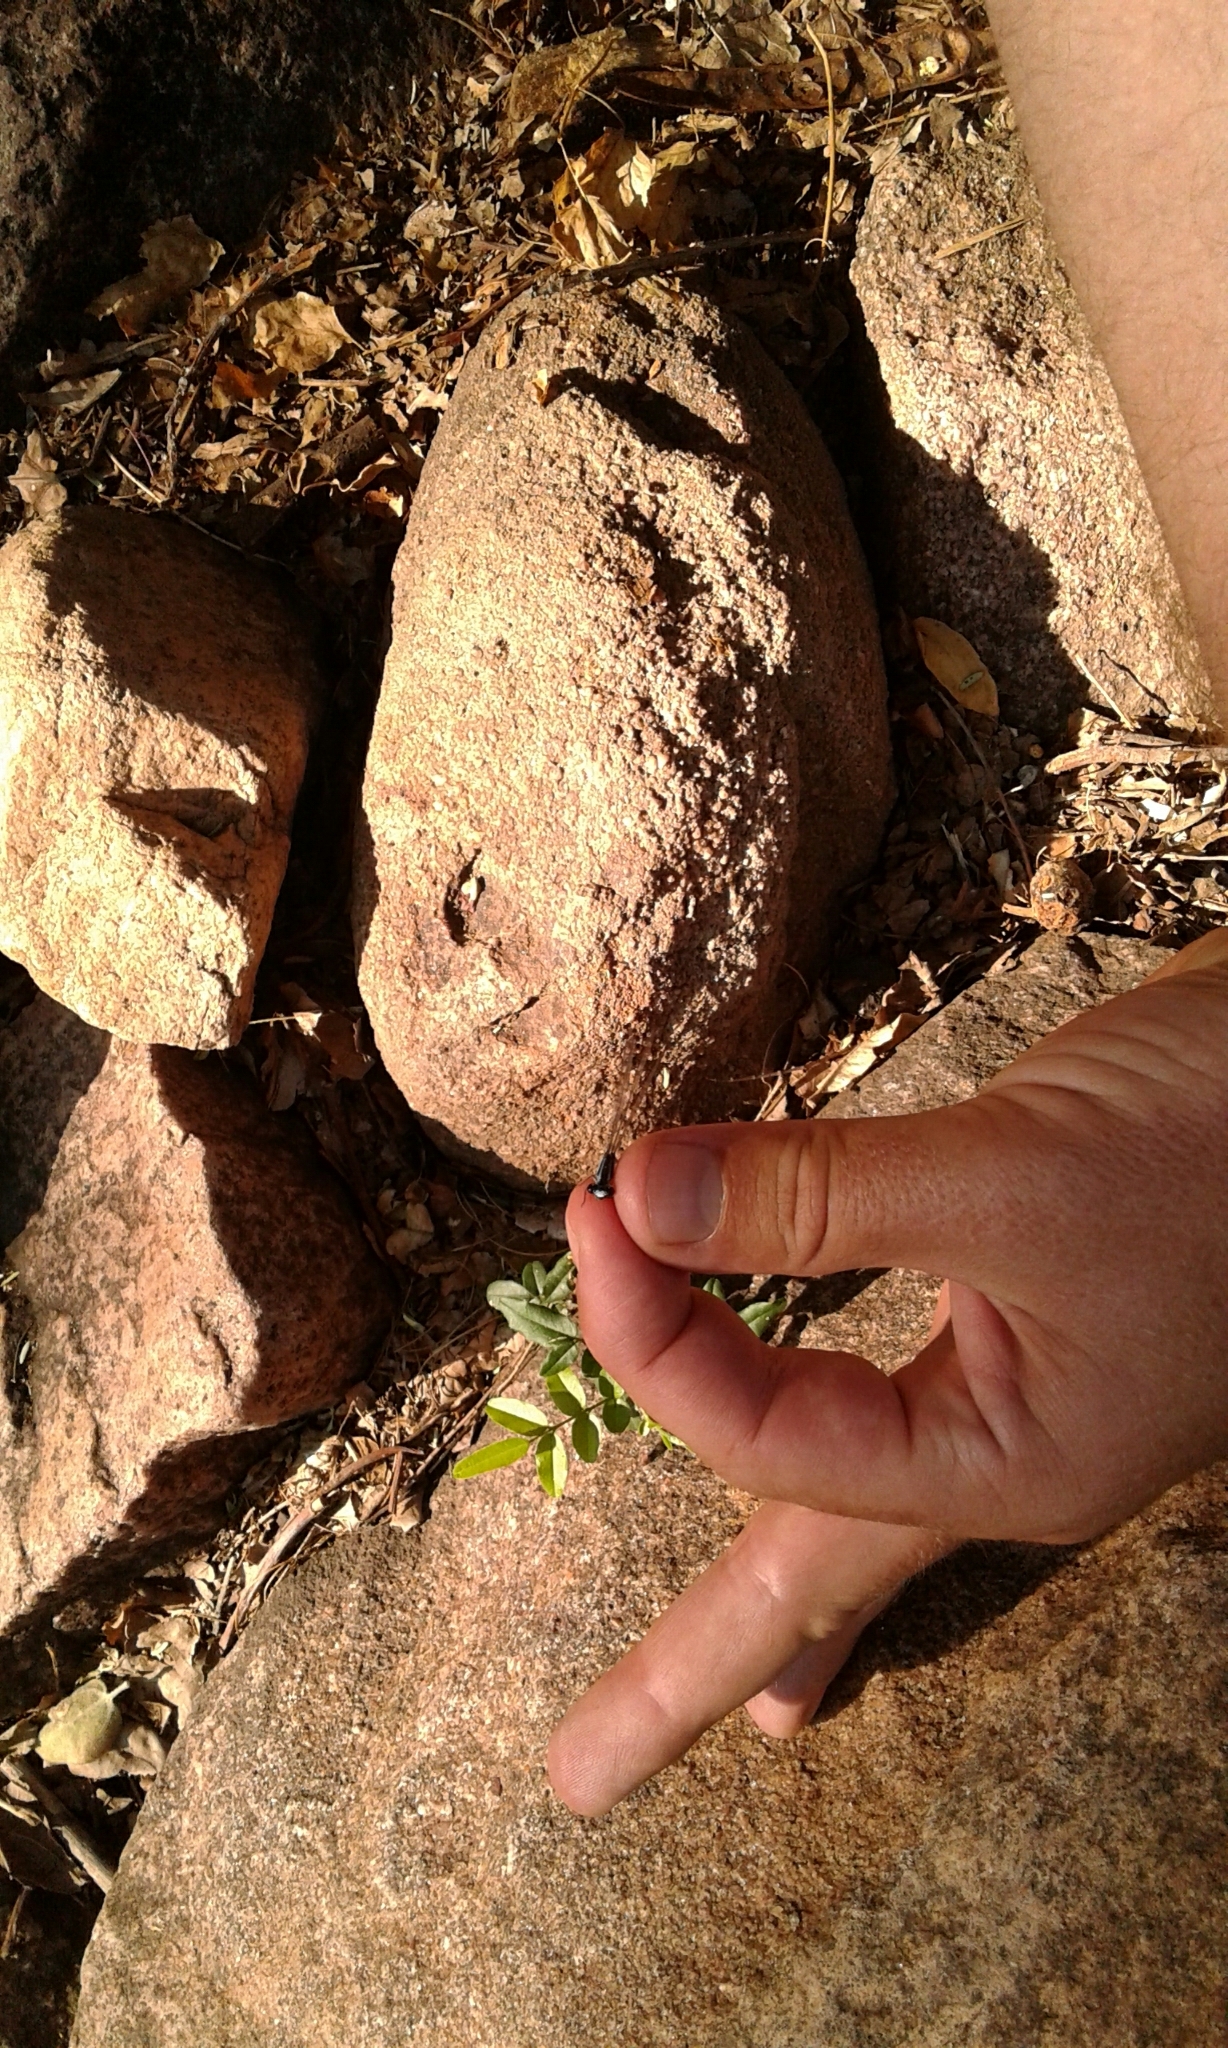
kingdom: Animalia
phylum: Arthropoda
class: Insecta
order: Odonata
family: Coenagrionidae
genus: Pseudagrion
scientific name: Pseudagrion kersteni
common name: Powder-faced sprite
